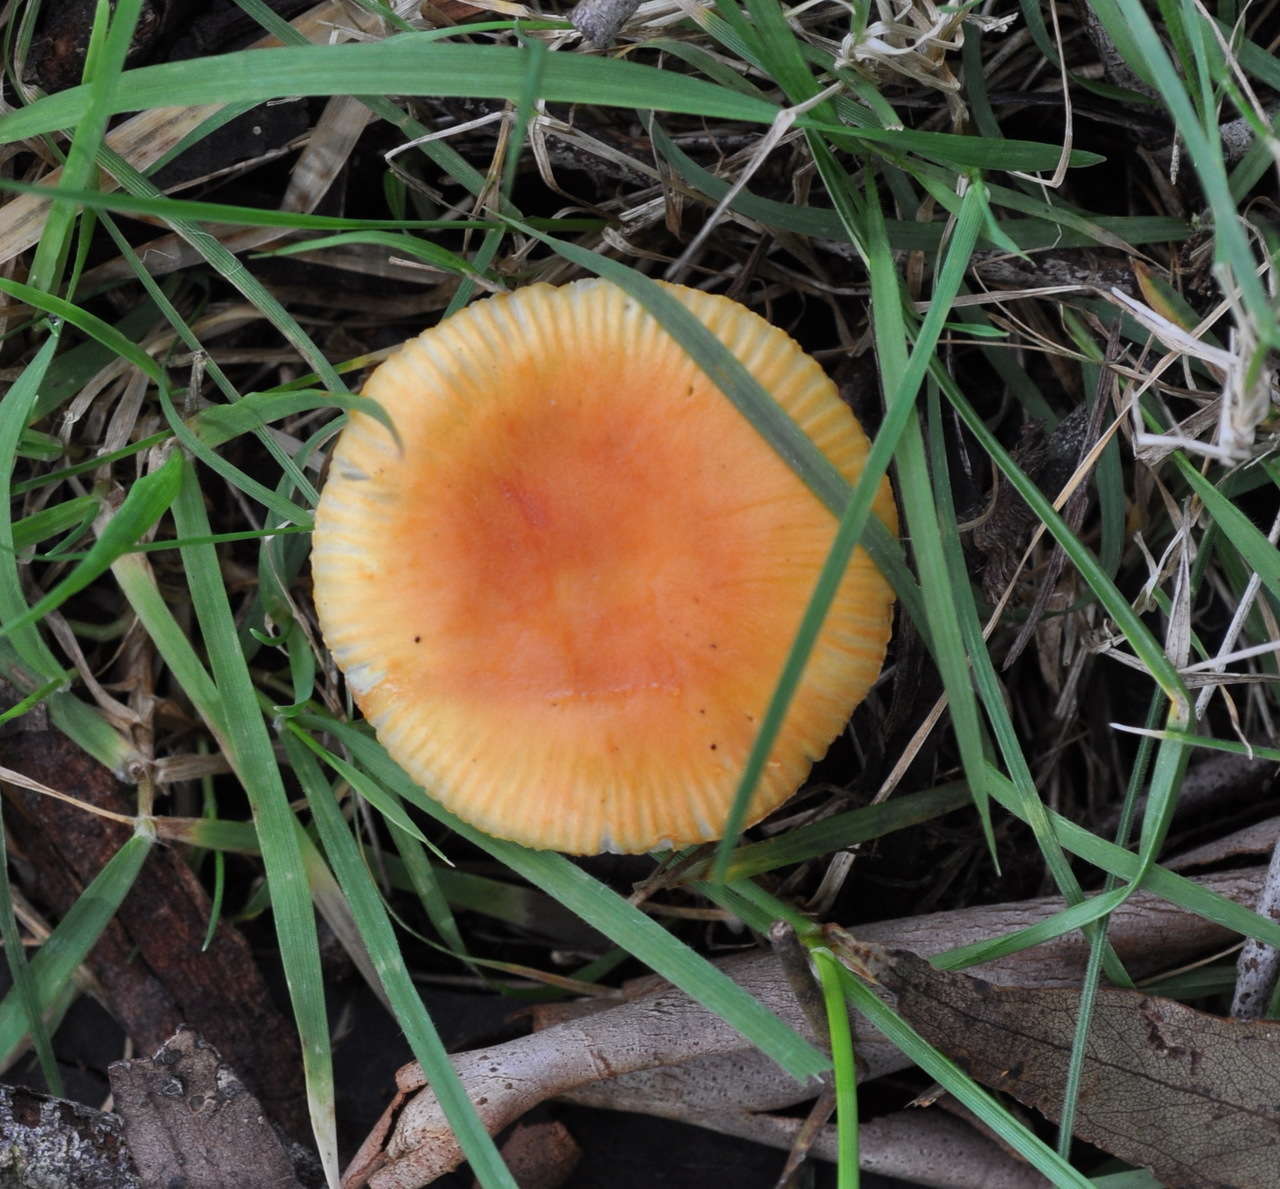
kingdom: Fungi
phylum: Basidiomycota
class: Agaricomycetes
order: Agaricales
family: Amanitaceae
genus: Amanita
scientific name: Amanita xanthocephala
